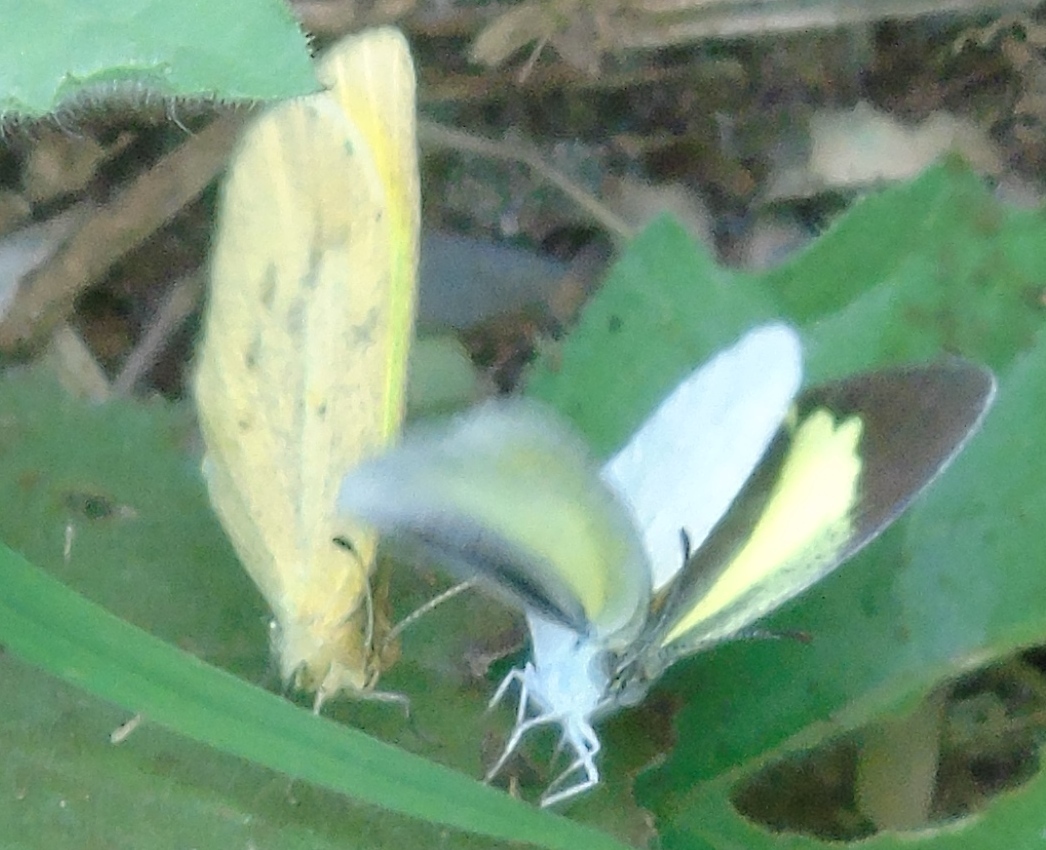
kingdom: Animalia
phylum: Arthropoda
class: Insecta
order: Lepidoptera
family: Pieridae
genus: Eurema
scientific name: Eurema
